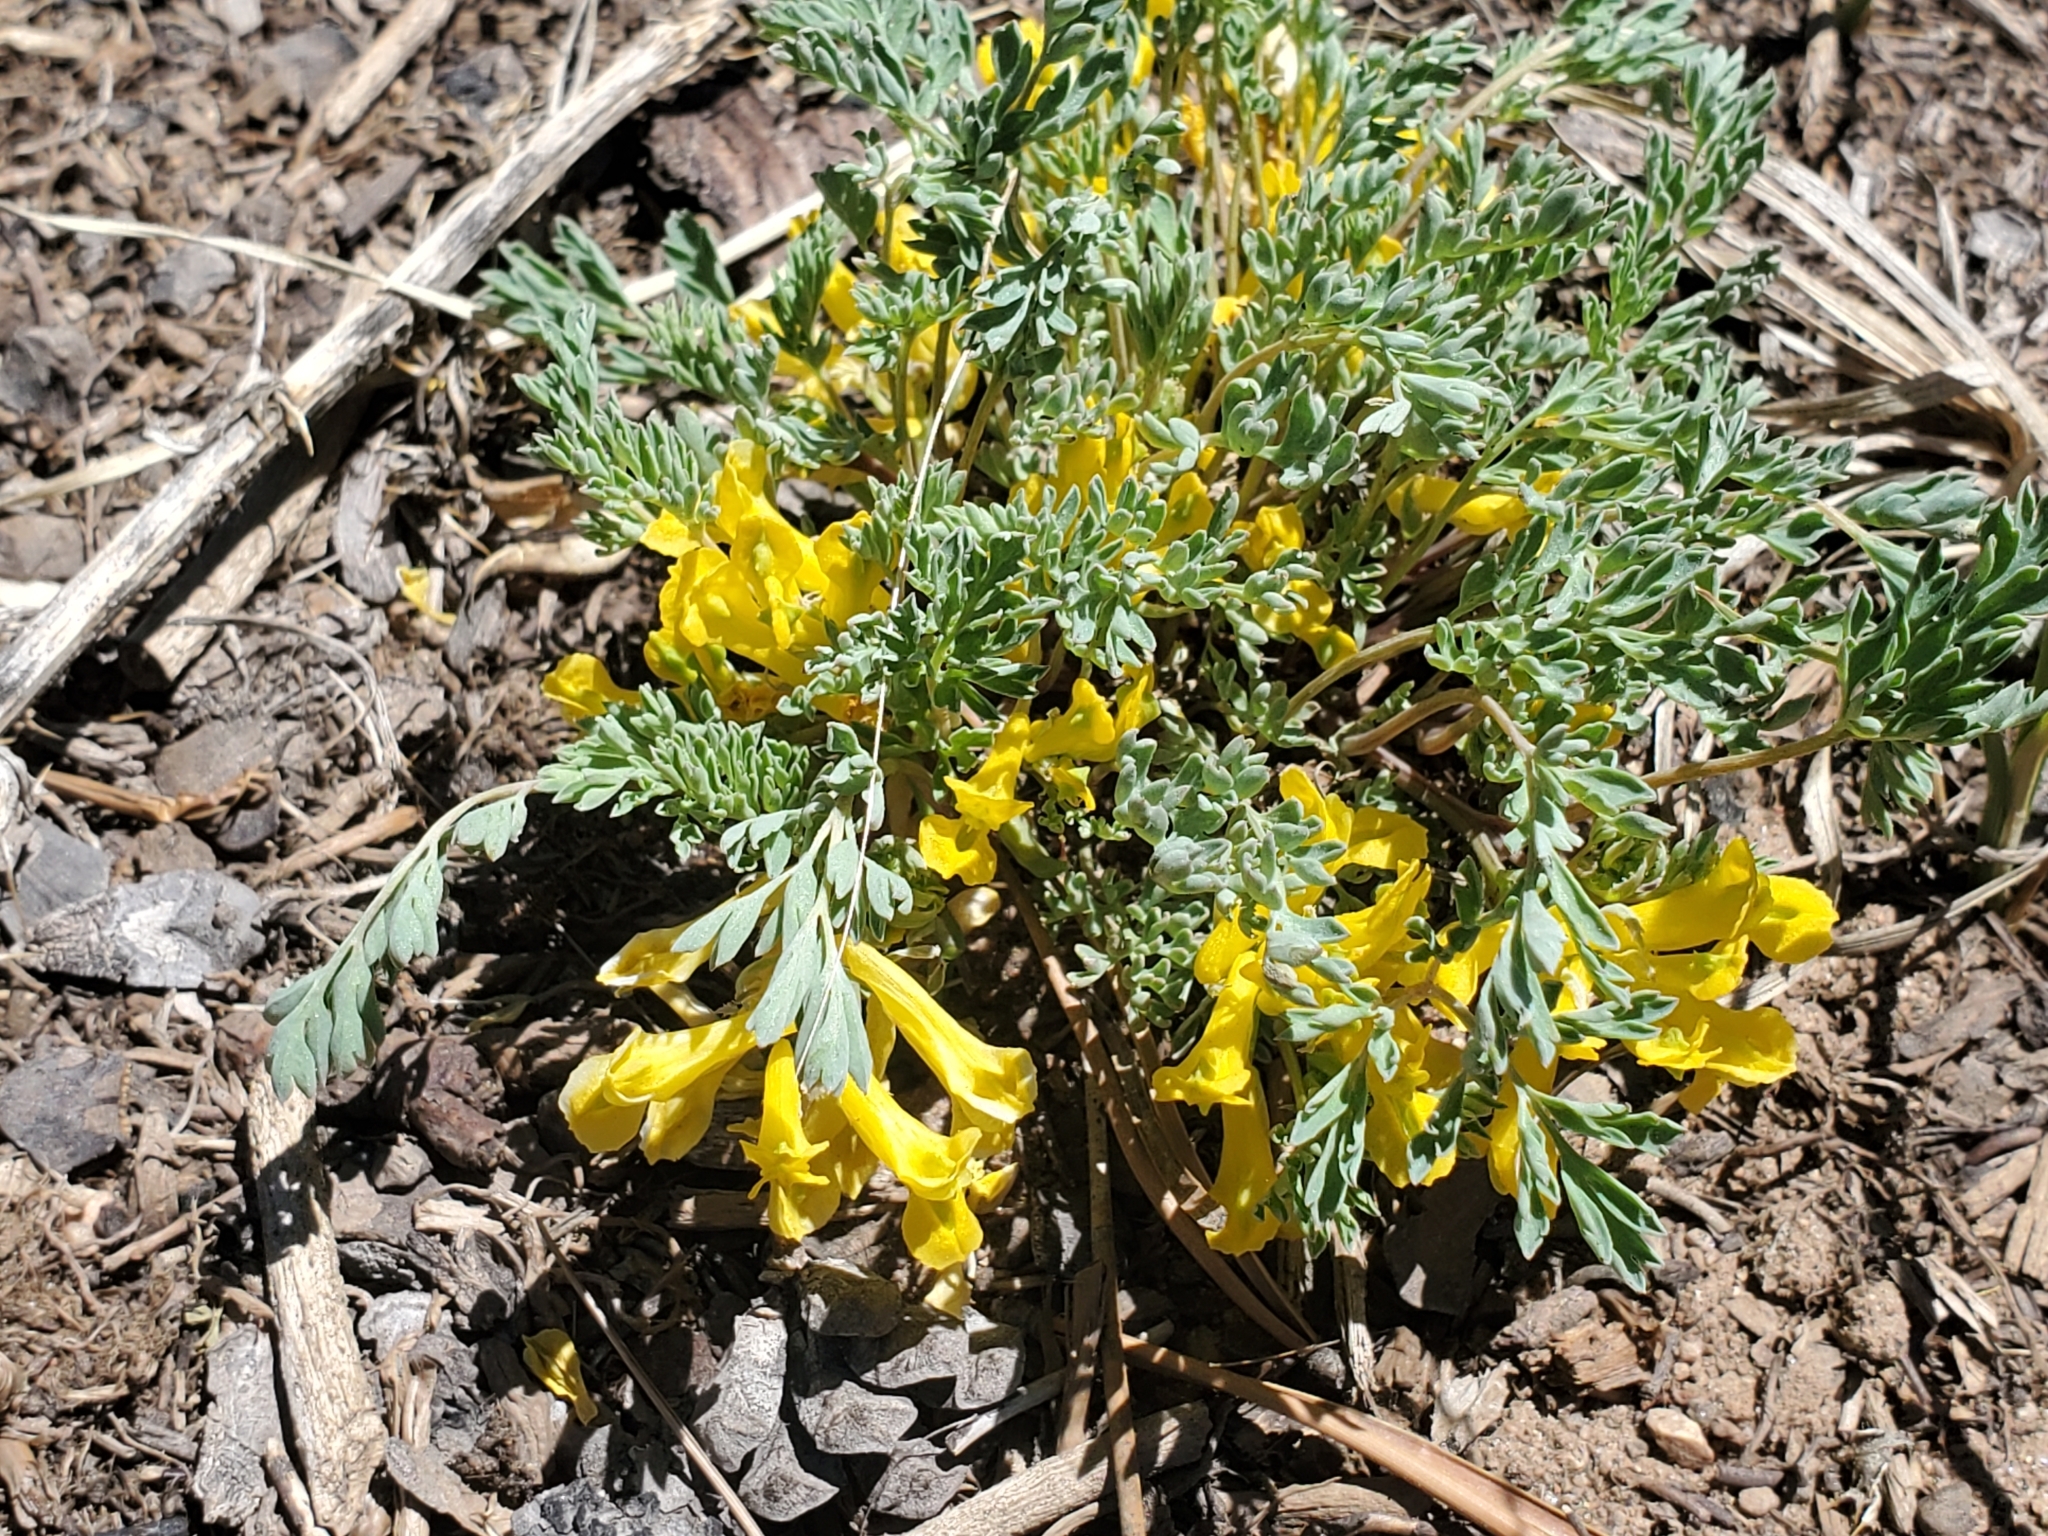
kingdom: Plantae
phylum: Tracheophyta
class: Magnoliopsida
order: Ranunculales
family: Papaveraceae
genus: Corydalis
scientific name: Corydalis aurea
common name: Golden corydalis
